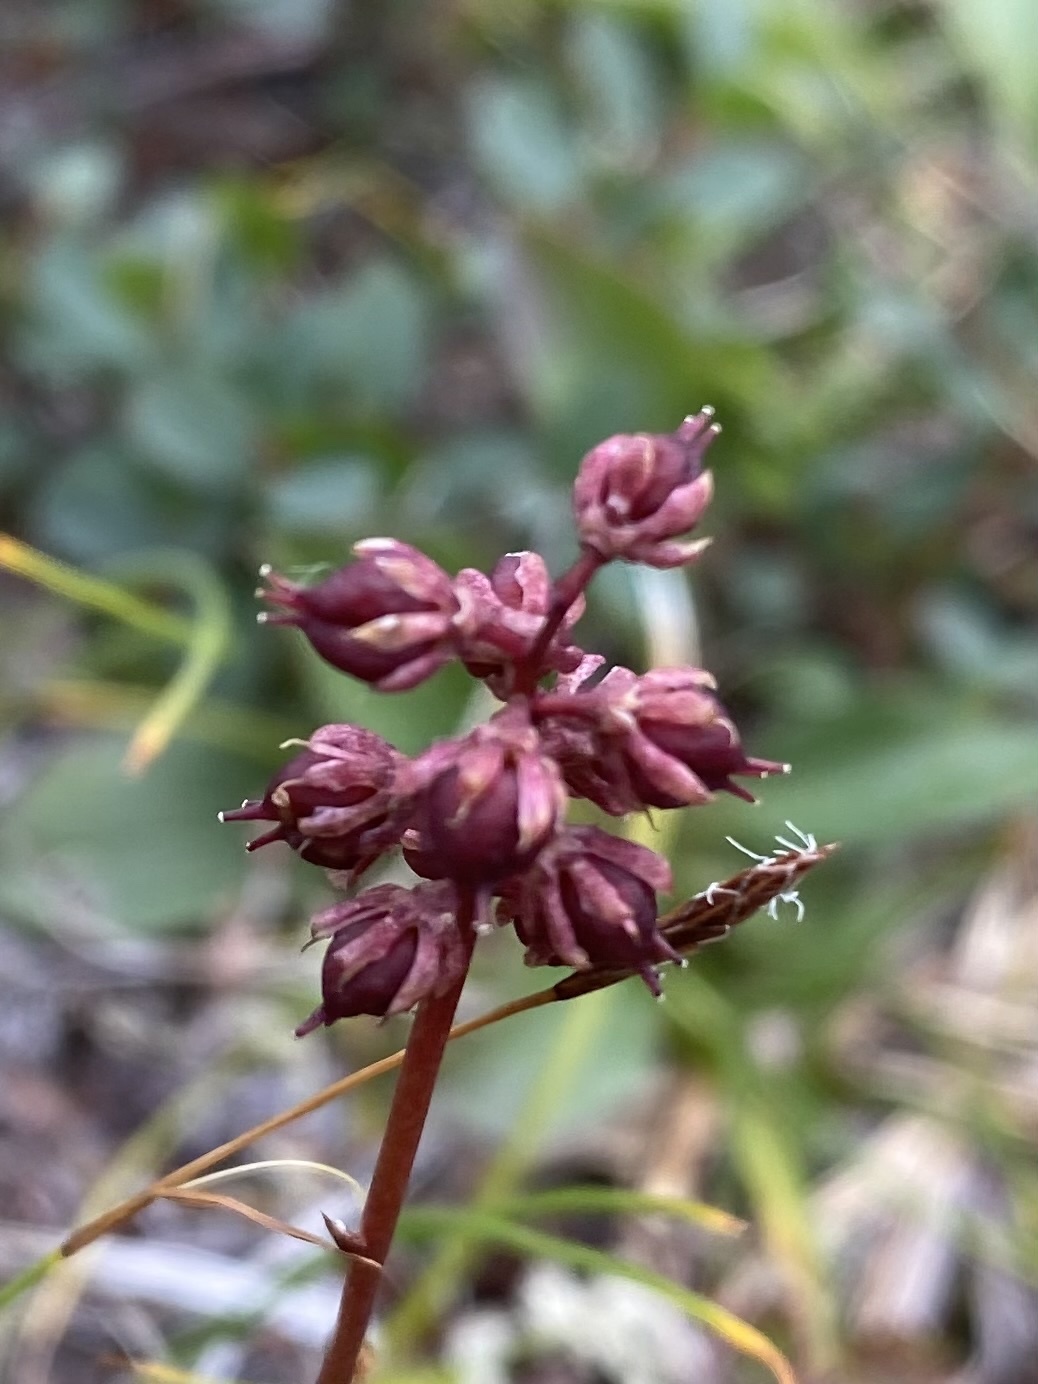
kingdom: Plantae
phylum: Tracheophyta
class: Liliopsida
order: Alismatales
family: Tofieldiaceae
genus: Tofieldia
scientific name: Tofieldia coccinea
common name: Northern false asphodel
